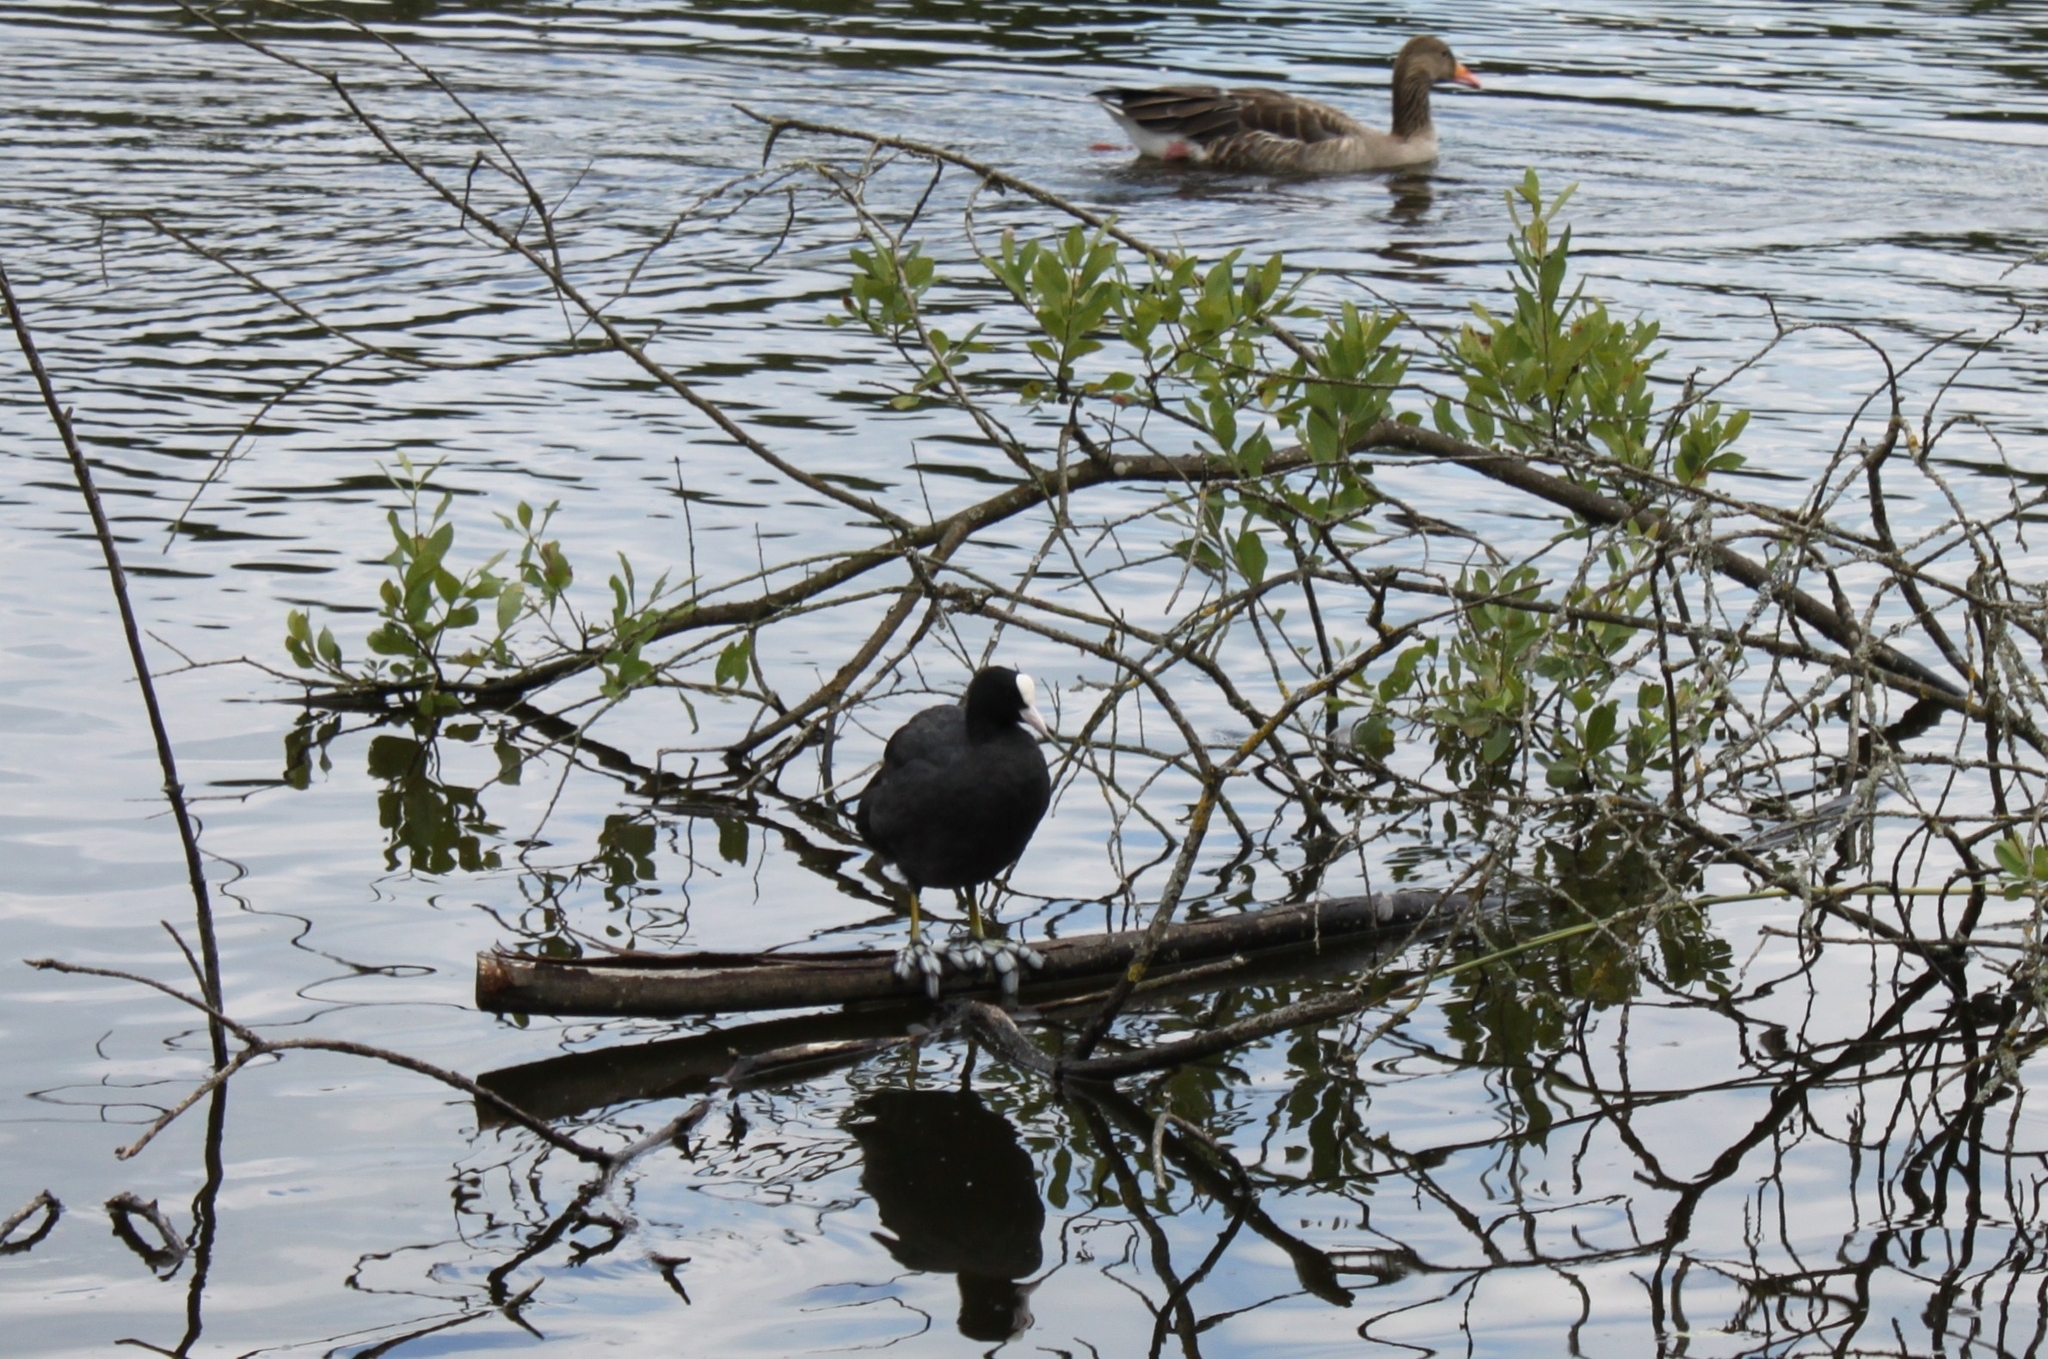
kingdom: Animalia
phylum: Chordata
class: Aves
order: Gruiformes
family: Rallidae
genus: Fulica
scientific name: Fulica atra
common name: Eurasian coot
